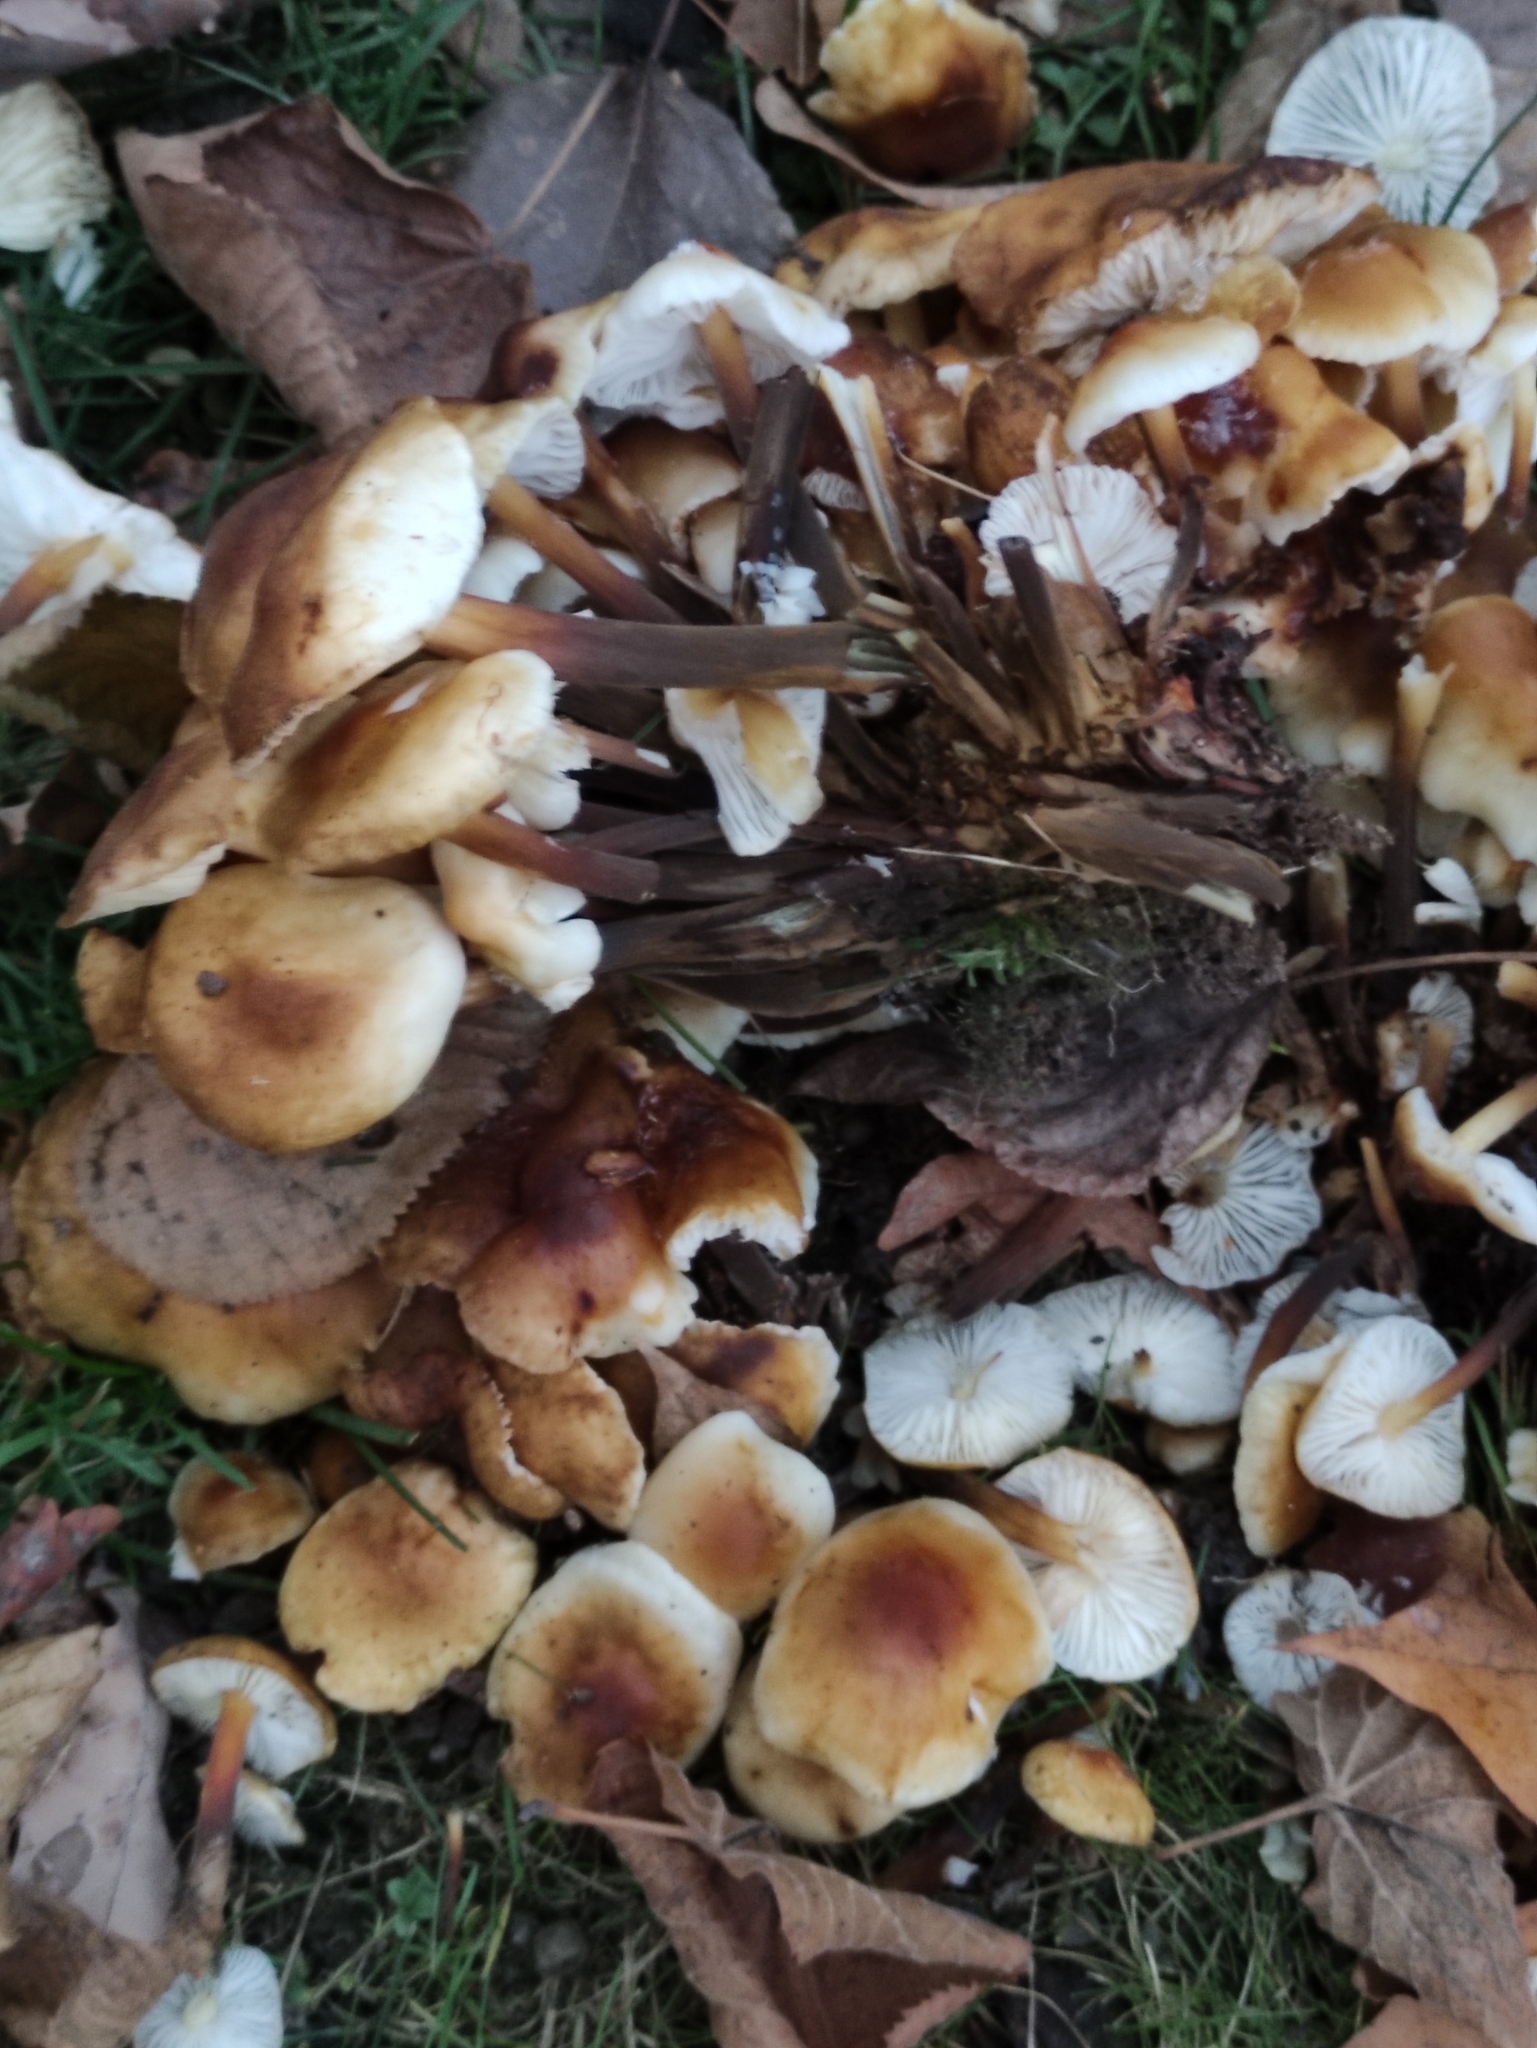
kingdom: Fungi
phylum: Basidiomycota
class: Agaricomycetes
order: Agaricales
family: Physalacriaceae
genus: Flammulina
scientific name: Flammulina
